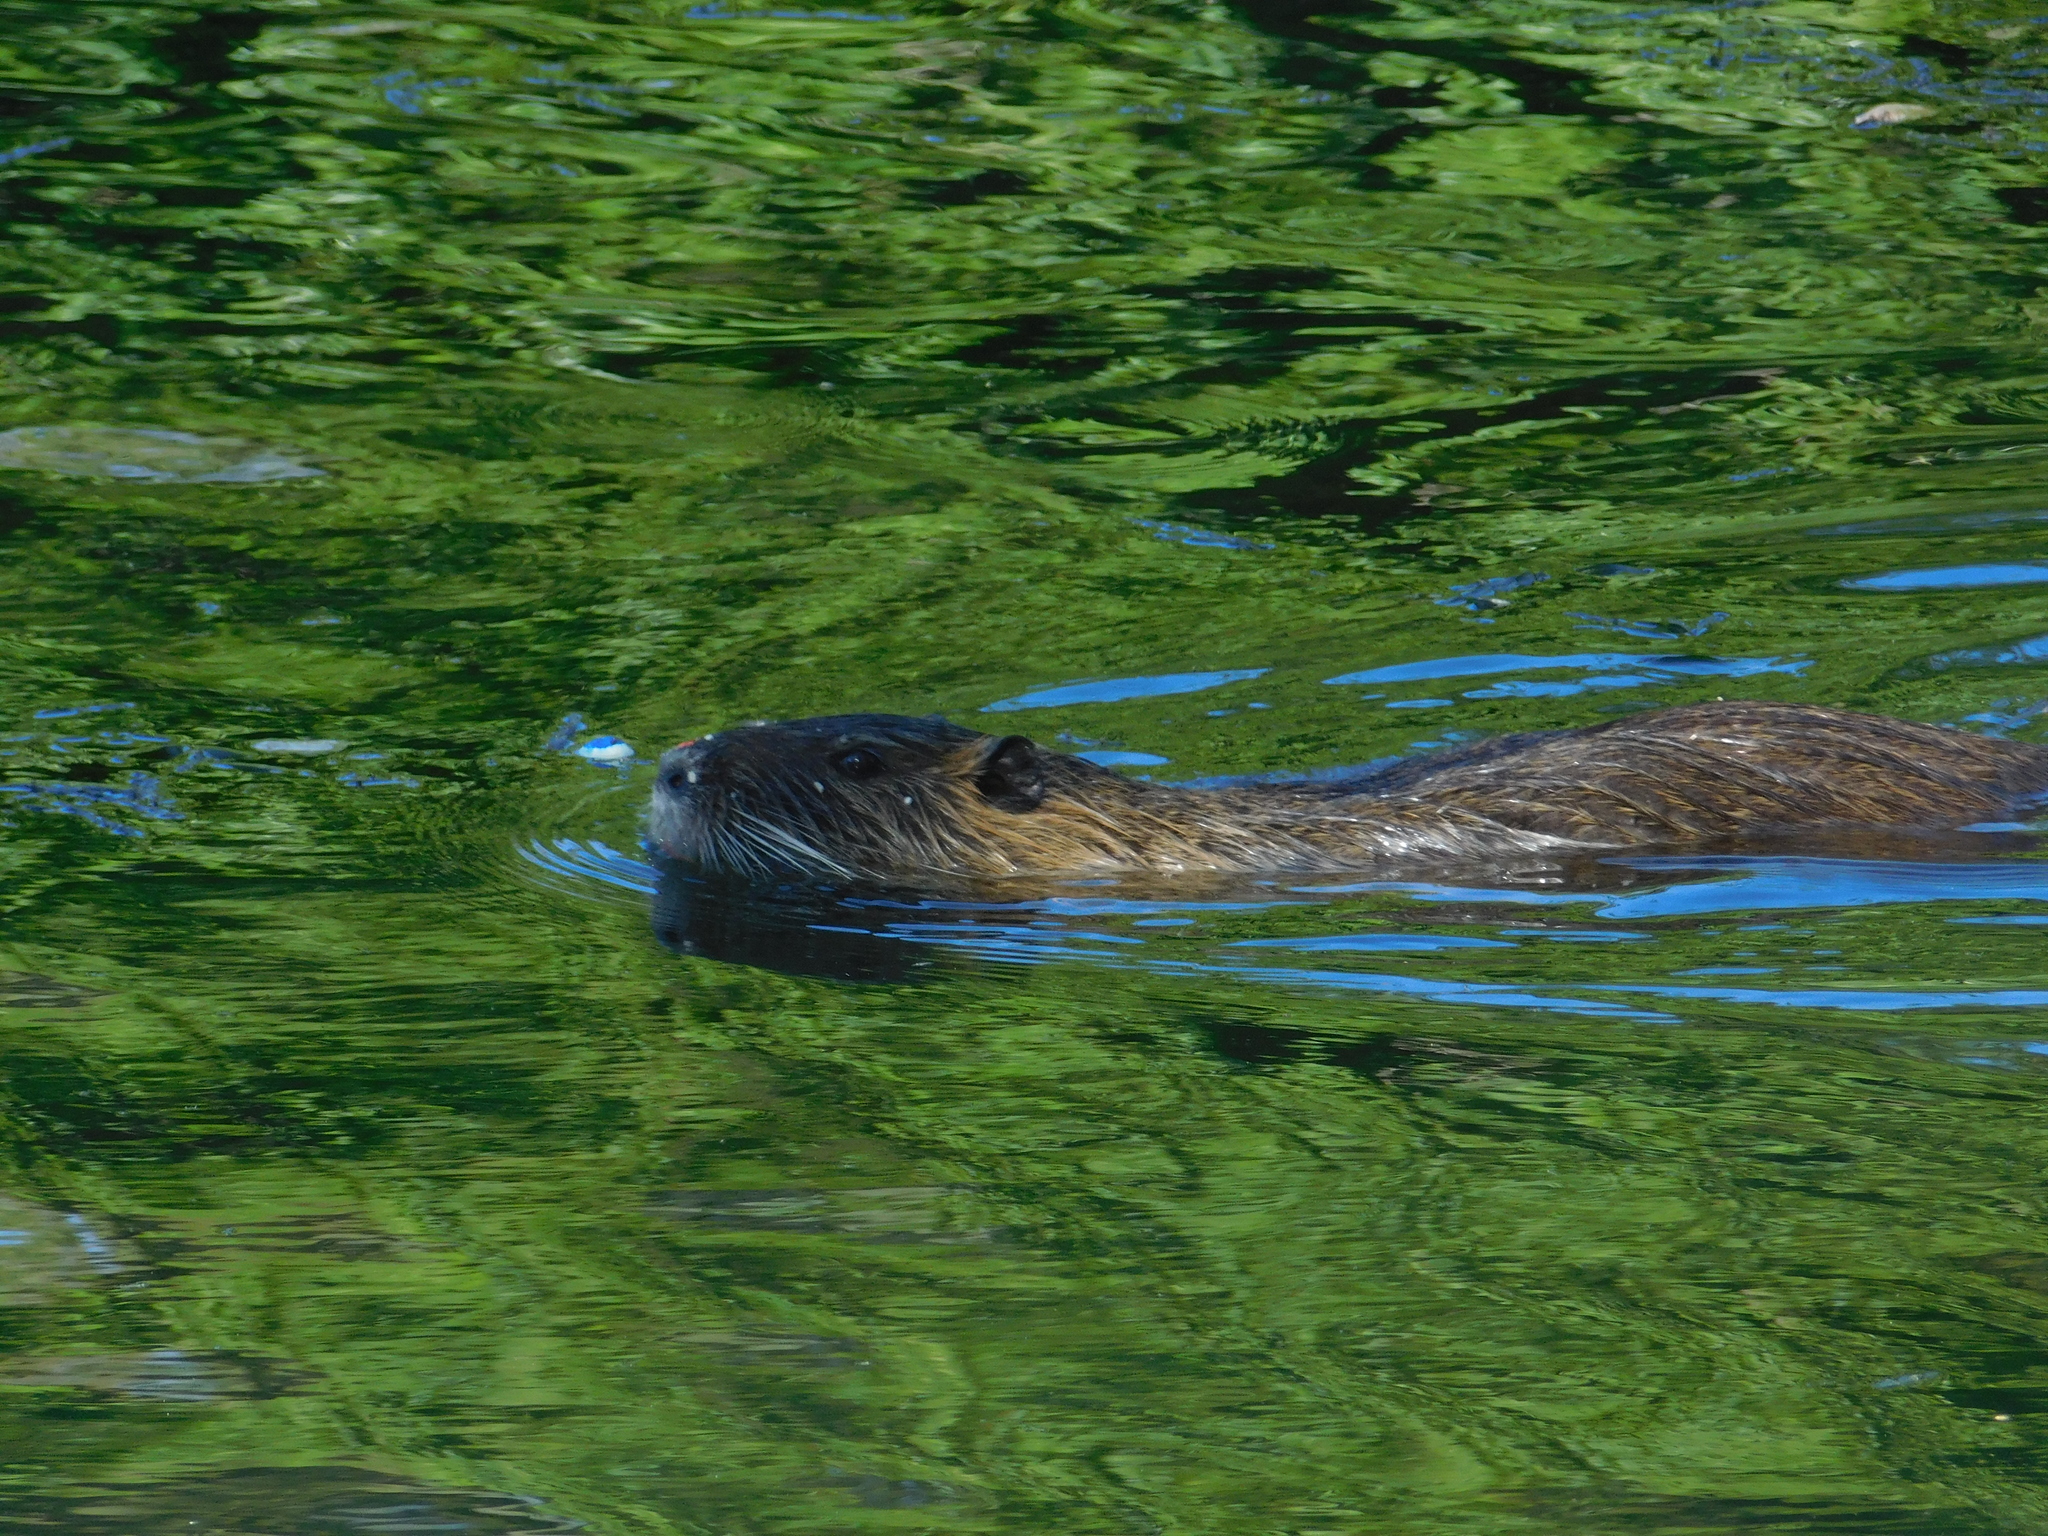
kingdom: Animalia
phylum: Chordata
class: Mammalia
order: Rodentia
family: Myocastoridae
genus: Myocastor
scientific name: Myocastor coypus
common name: Coypu
